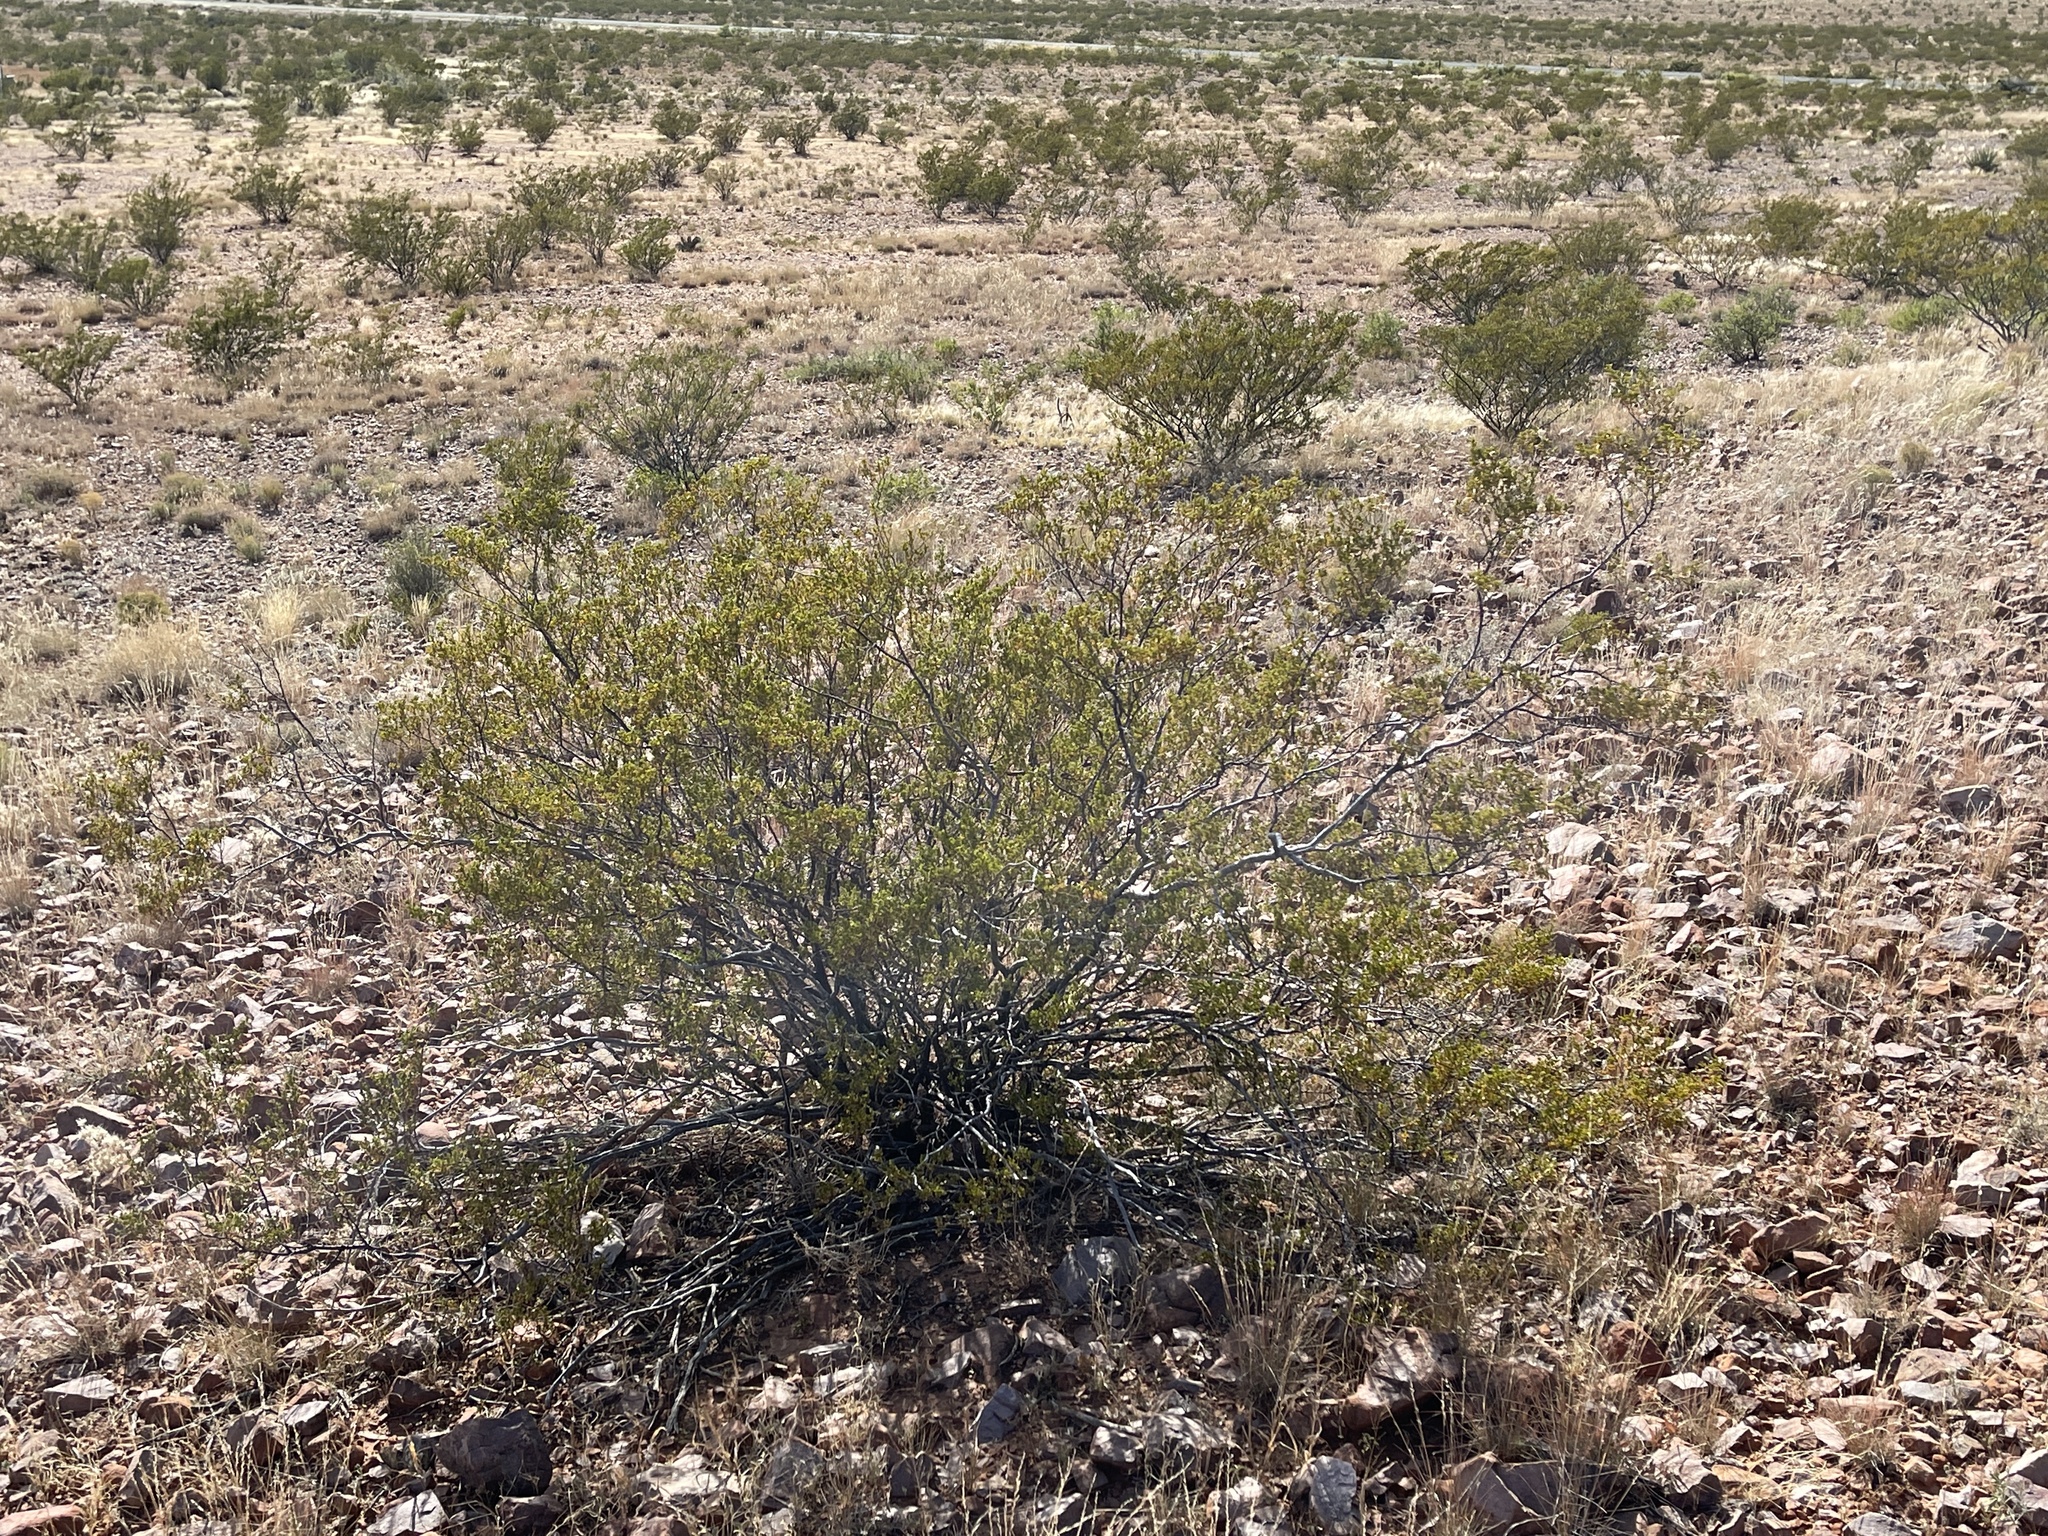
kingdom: Plantae
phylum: Tracheophyta
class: Magnoliopsida
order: Zygophyllales
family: Zygophyllaceae
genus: Larrea
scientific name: Larrea tridentata
